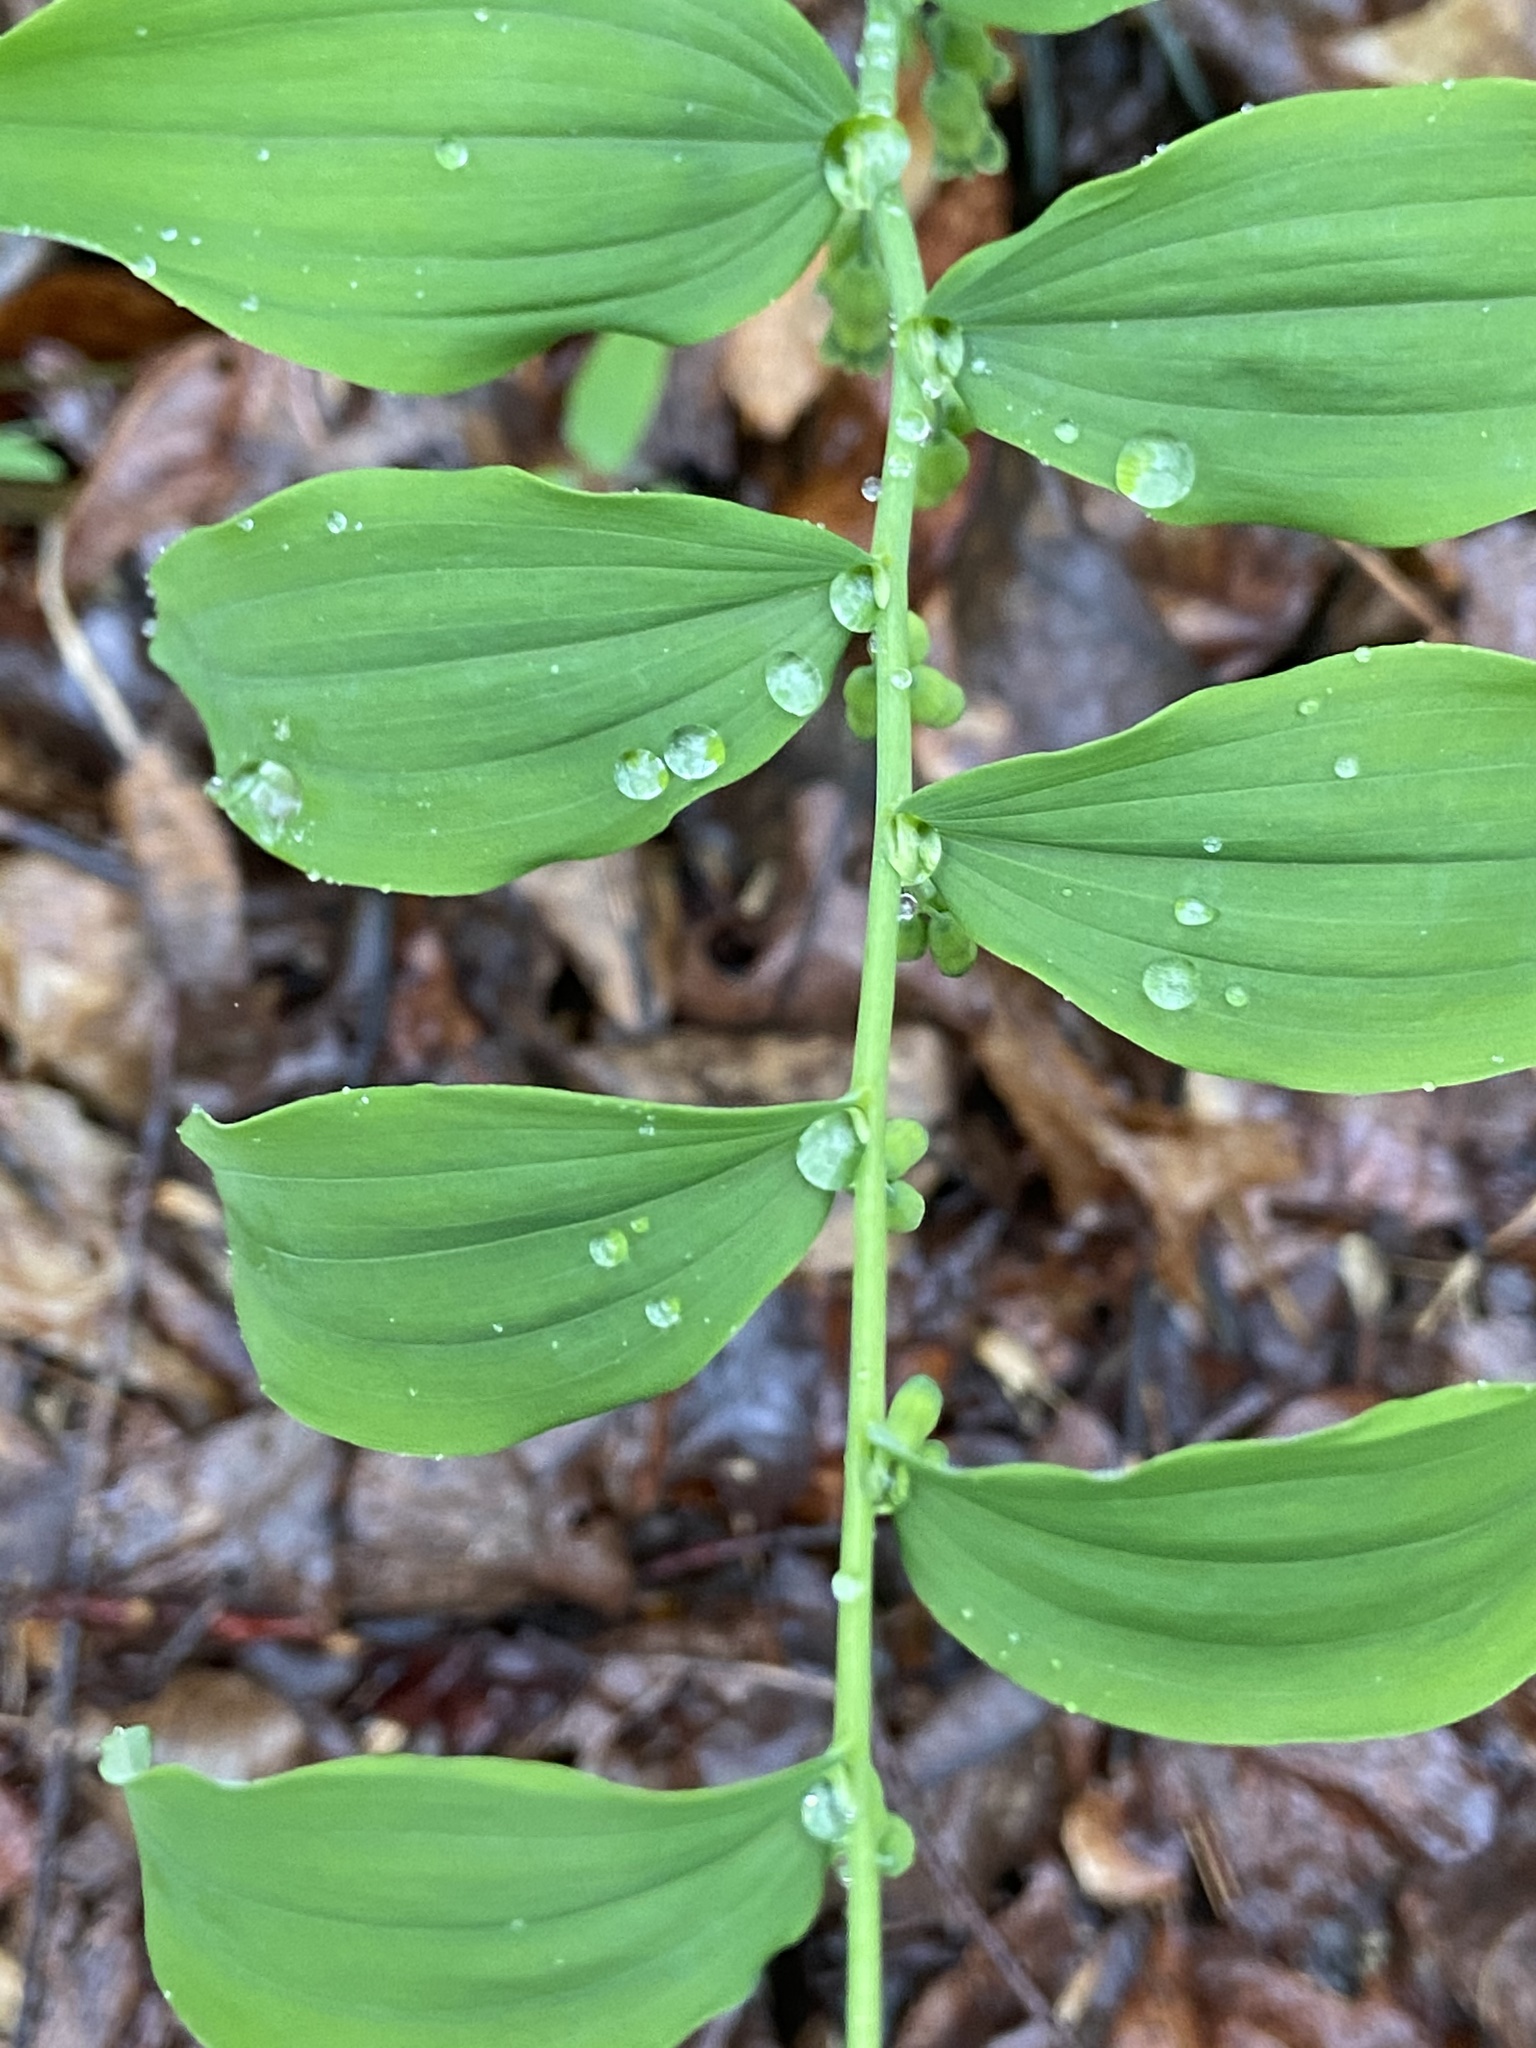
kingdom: Plantae
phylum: Tracheophyta
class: Liliopsida
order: Asparagales
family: Asparagaceae
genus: Polygonatum
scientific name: Polygonatum pubescens
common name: Downy solomon's seal
